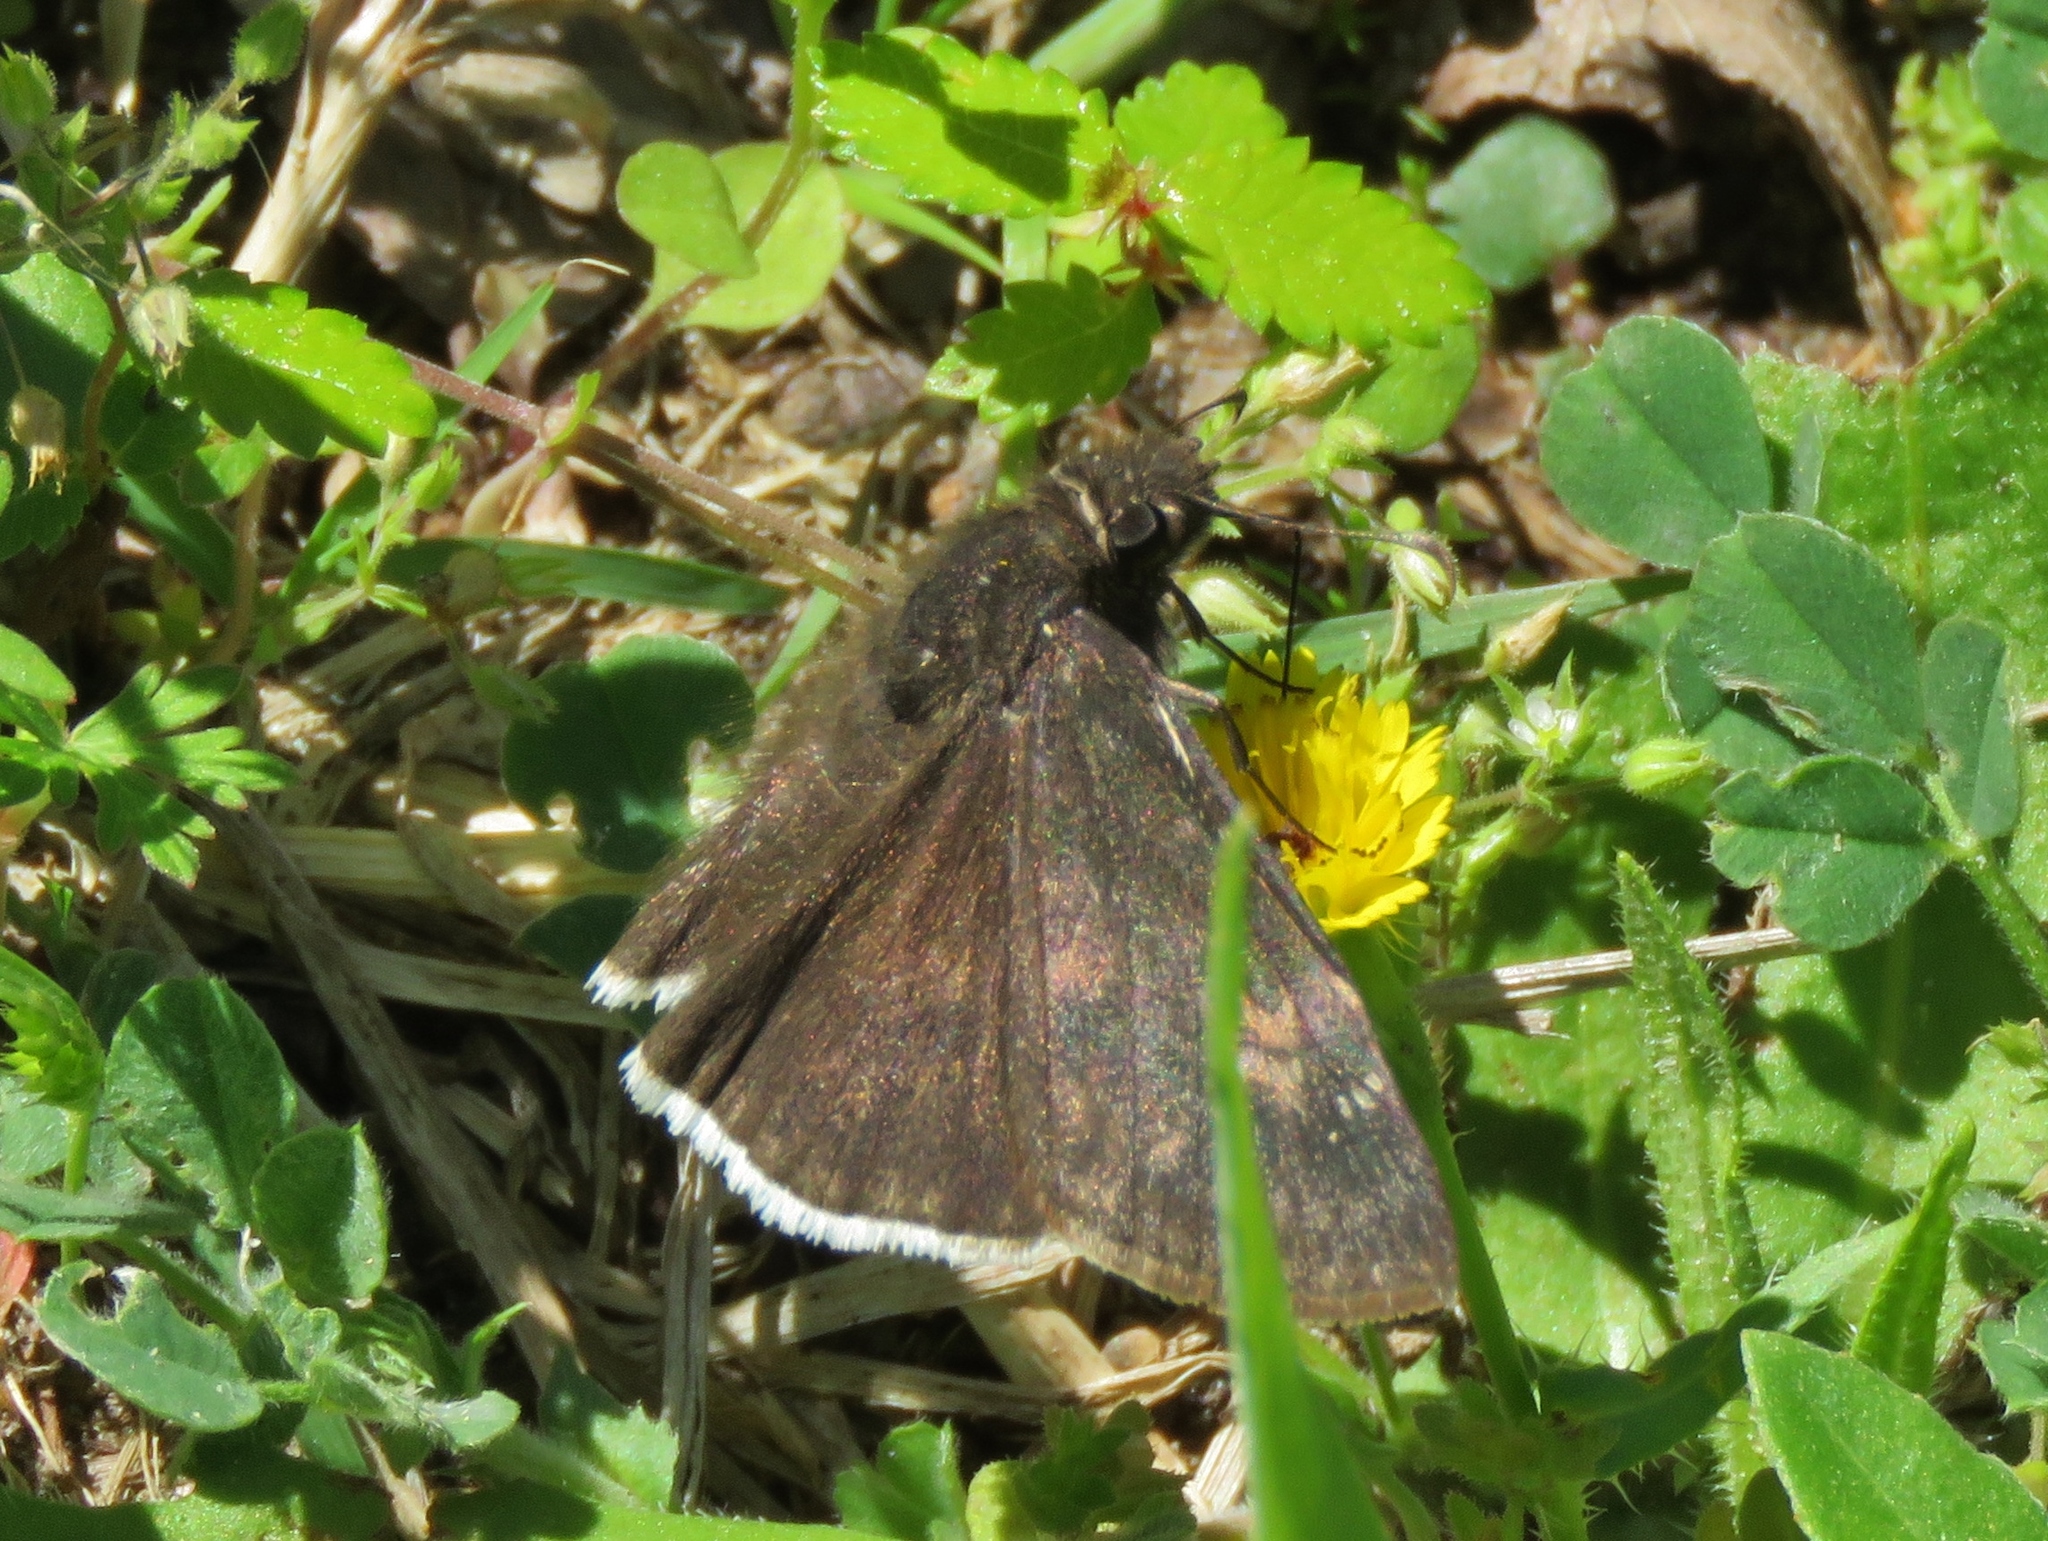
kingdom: Animalia
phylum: Arthropoda
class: Insecta
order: Lepidoptera
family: Hesperiidae
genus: Erynnis
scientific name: Erynnis funeralis
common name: Funereal duskywing
